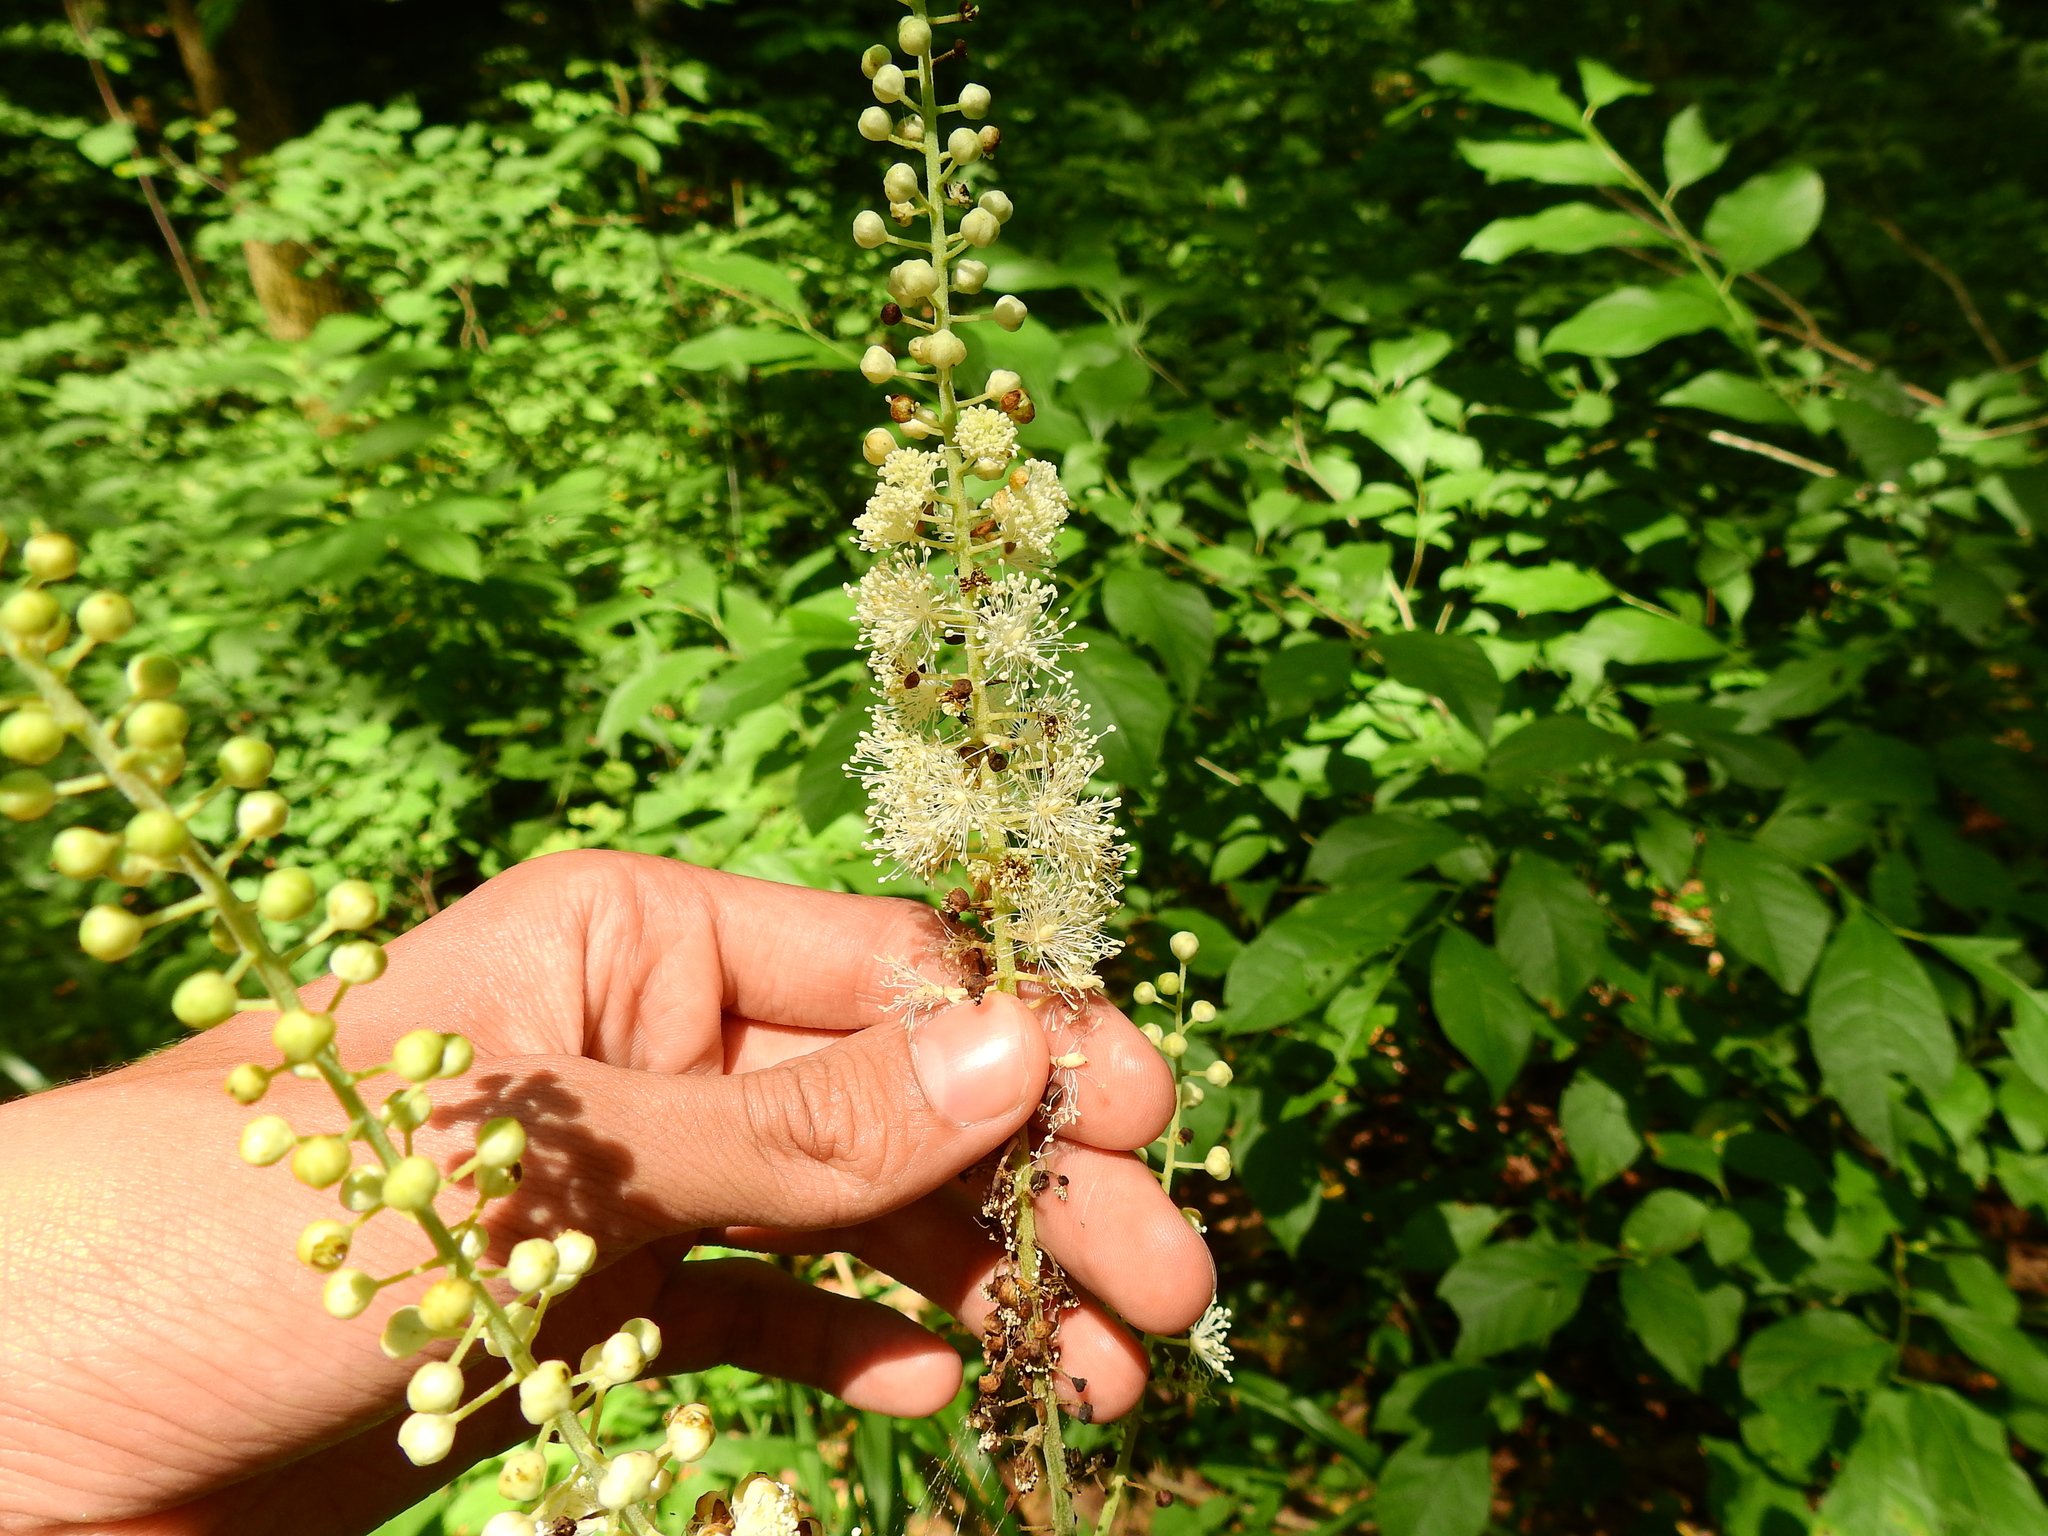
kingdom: Plantae
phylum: Tracheophyta
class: Magnoliopsida
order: Ranunculales
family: Ranunculaceae
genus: Actaea
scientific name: Actaea racemosa
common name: Black cohosh
